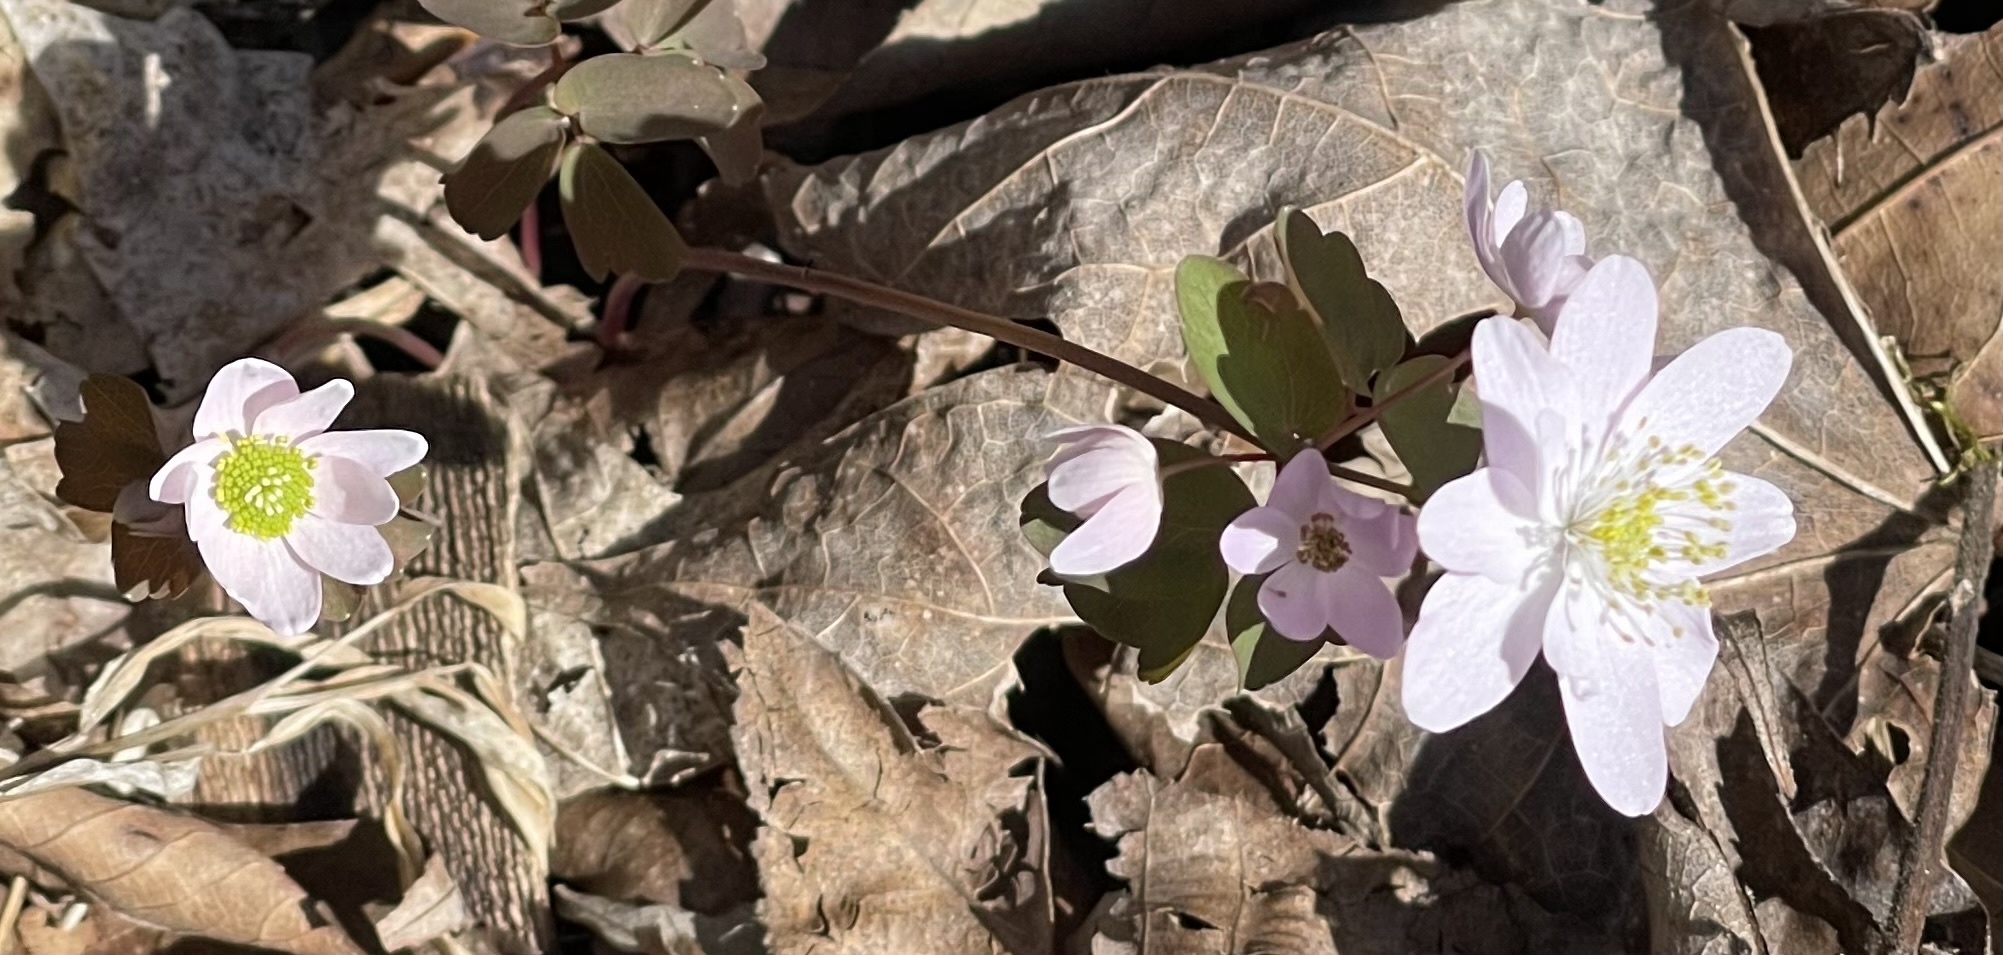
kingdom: Plantae
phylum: Tracheophyta
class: Magnoliopsida
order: Ranunculales
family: Ranunculaceae
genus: Thalictrum
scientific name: Thalictrum thalictroides
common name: Rue-anemone
